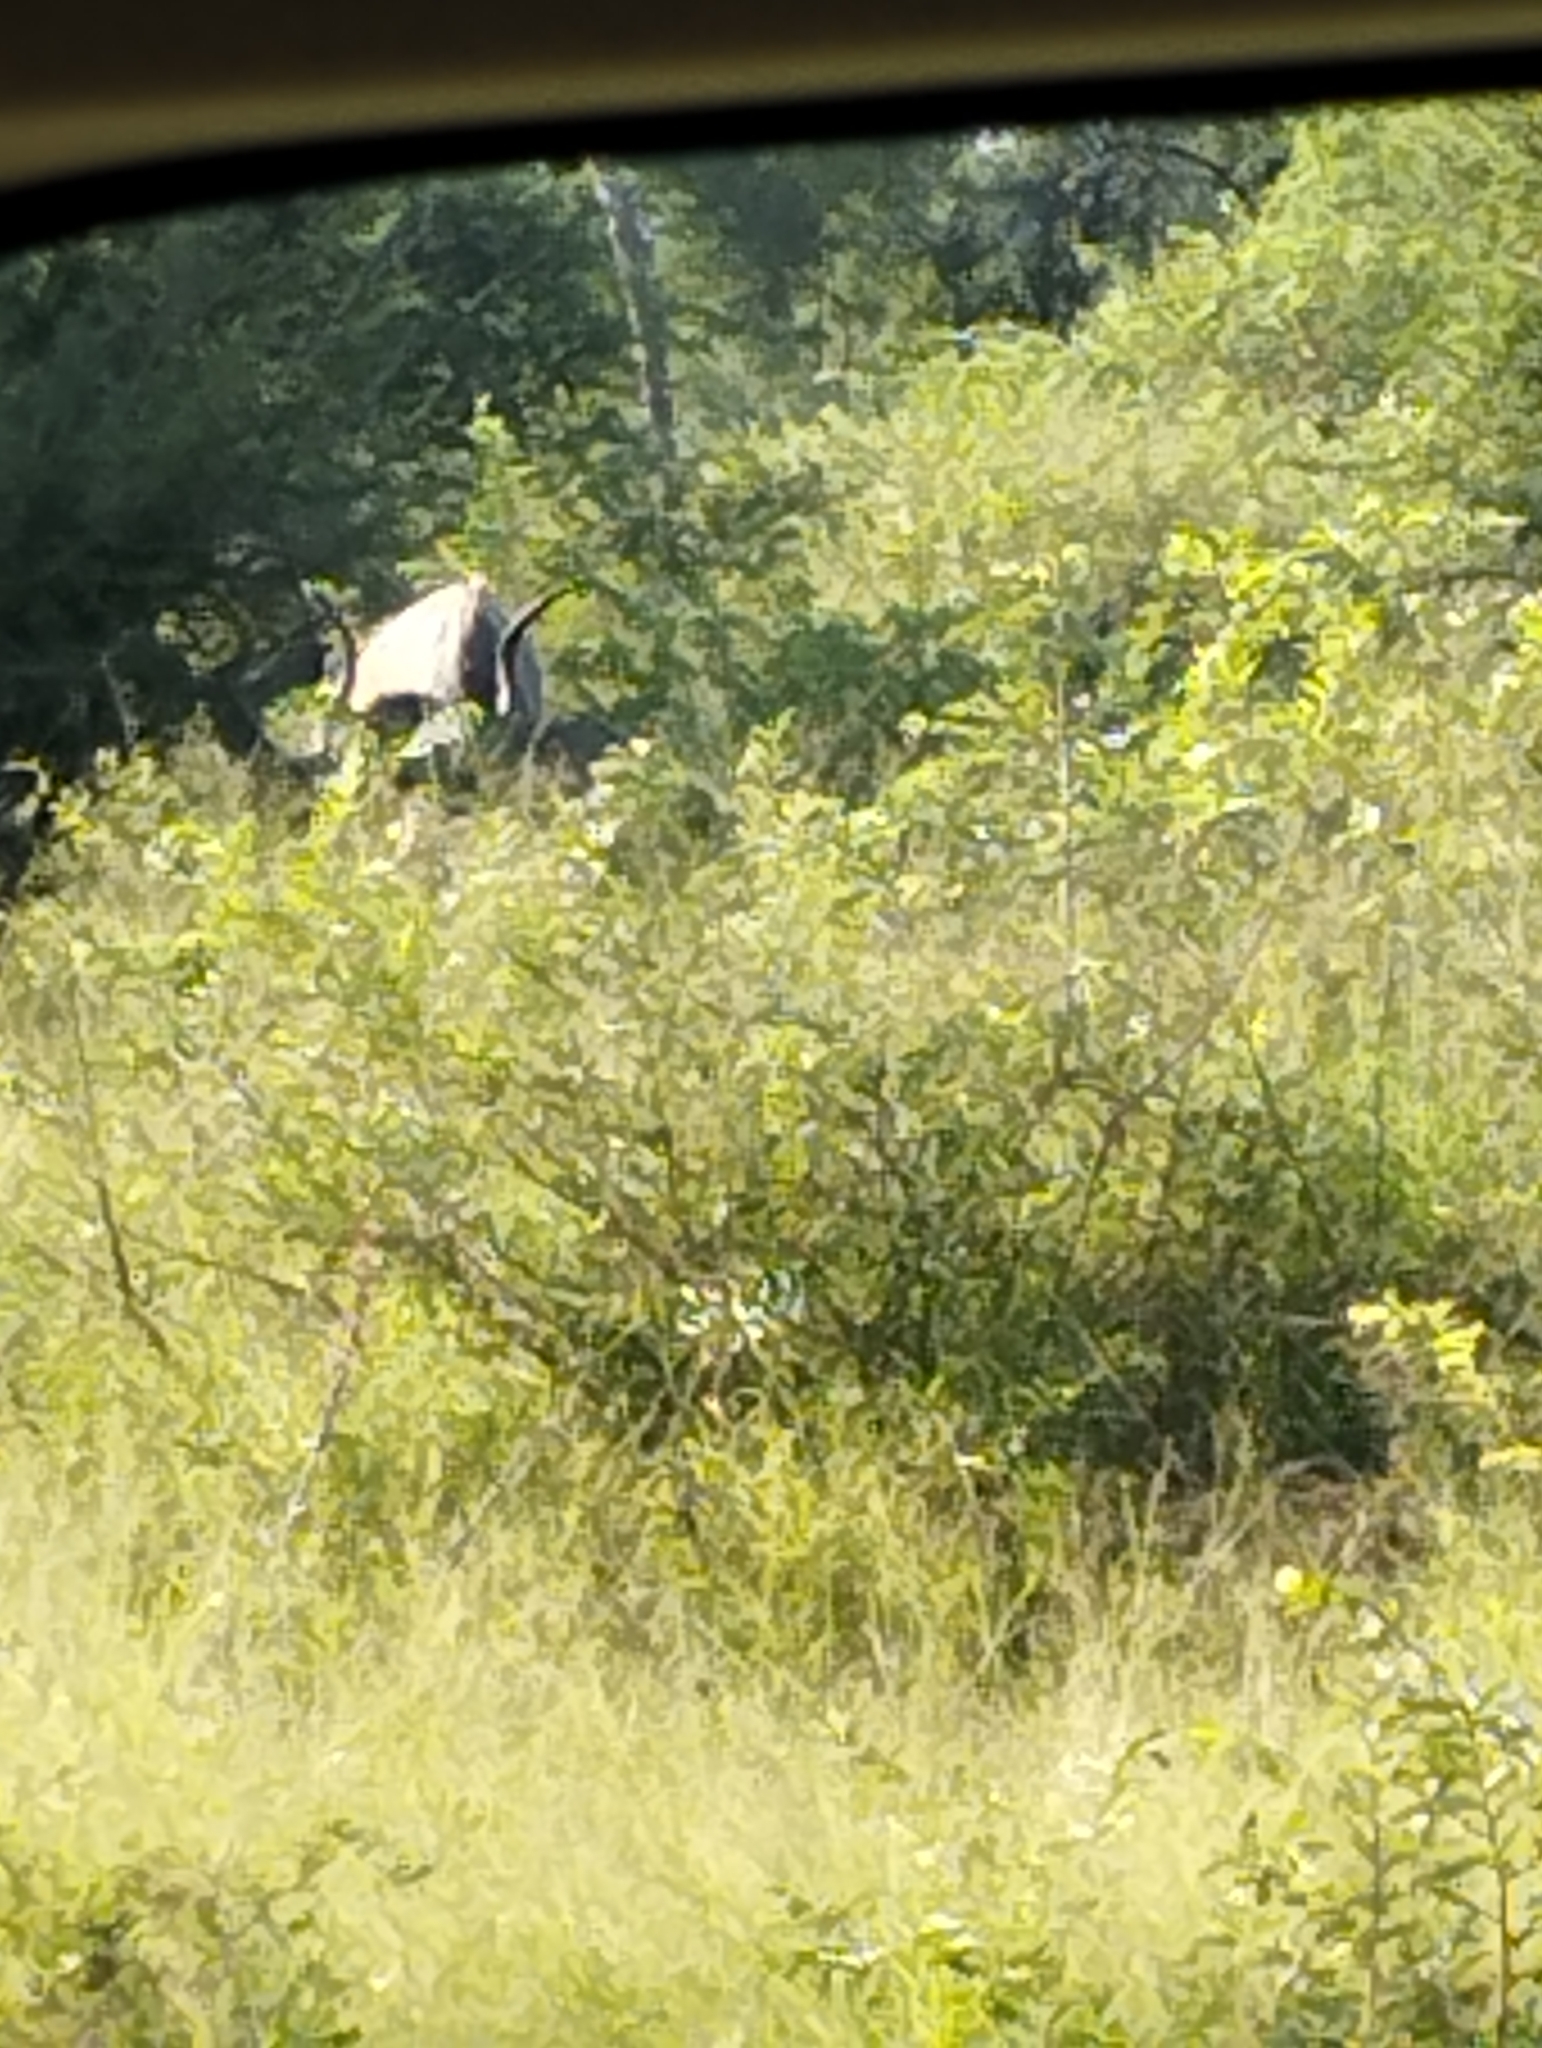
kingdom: Animalia
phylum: Chordata
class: Mammalia
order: Artiodactyla
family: Bovidae
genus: Tragelaphus
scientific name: Tragelaphus strepsiceros
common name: Greater kudu
